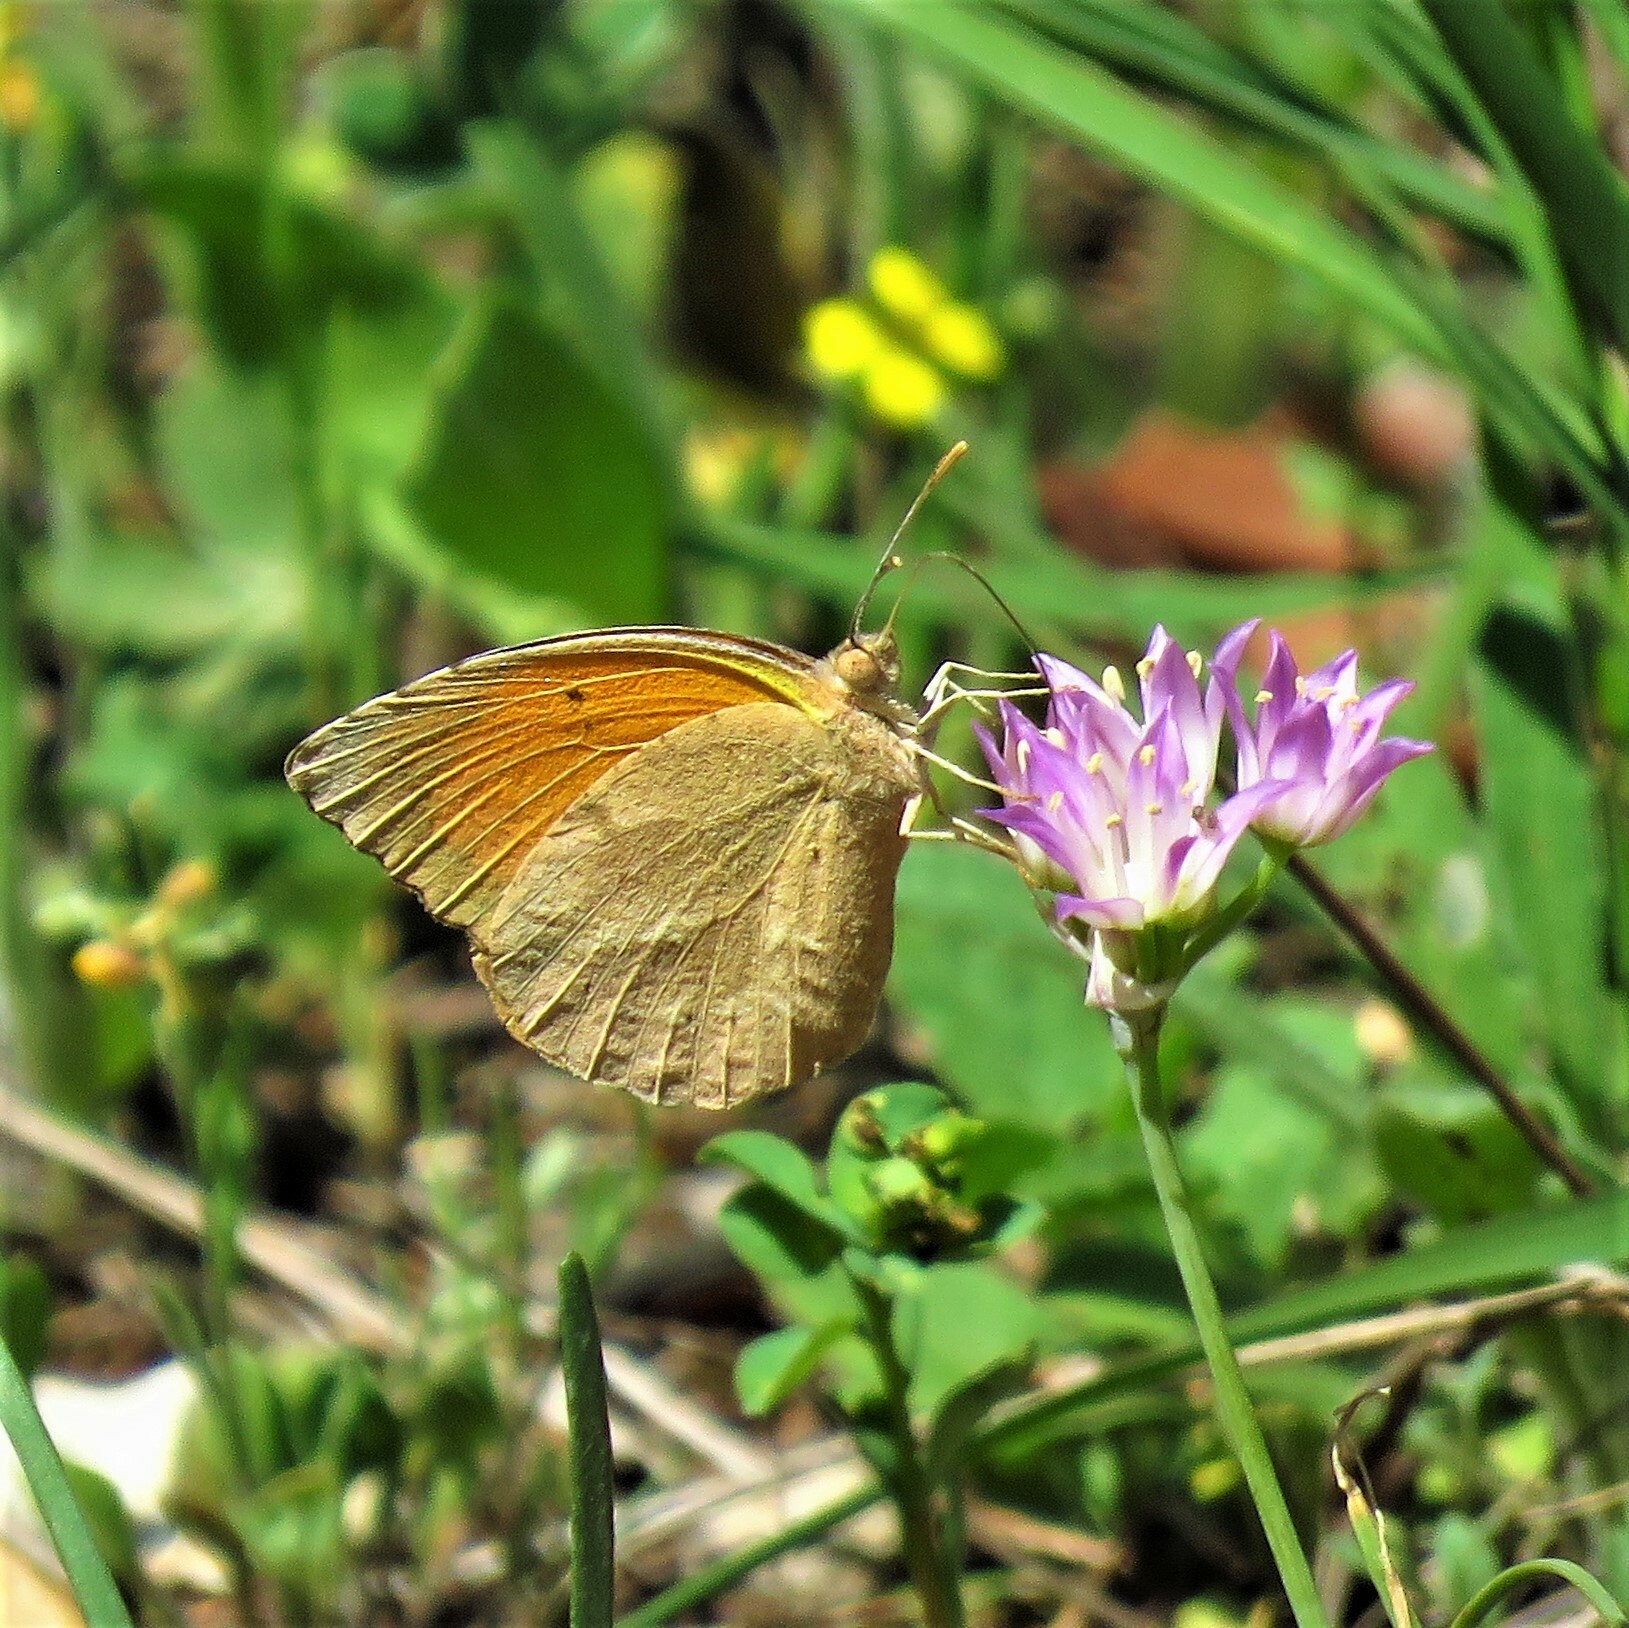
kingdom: Animalia
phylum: Arthropoda
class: Insecta
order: Lepidoptera
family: Pieridae
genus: Abaeis
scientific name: Abaeis nicippe
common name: Sleepy orange
